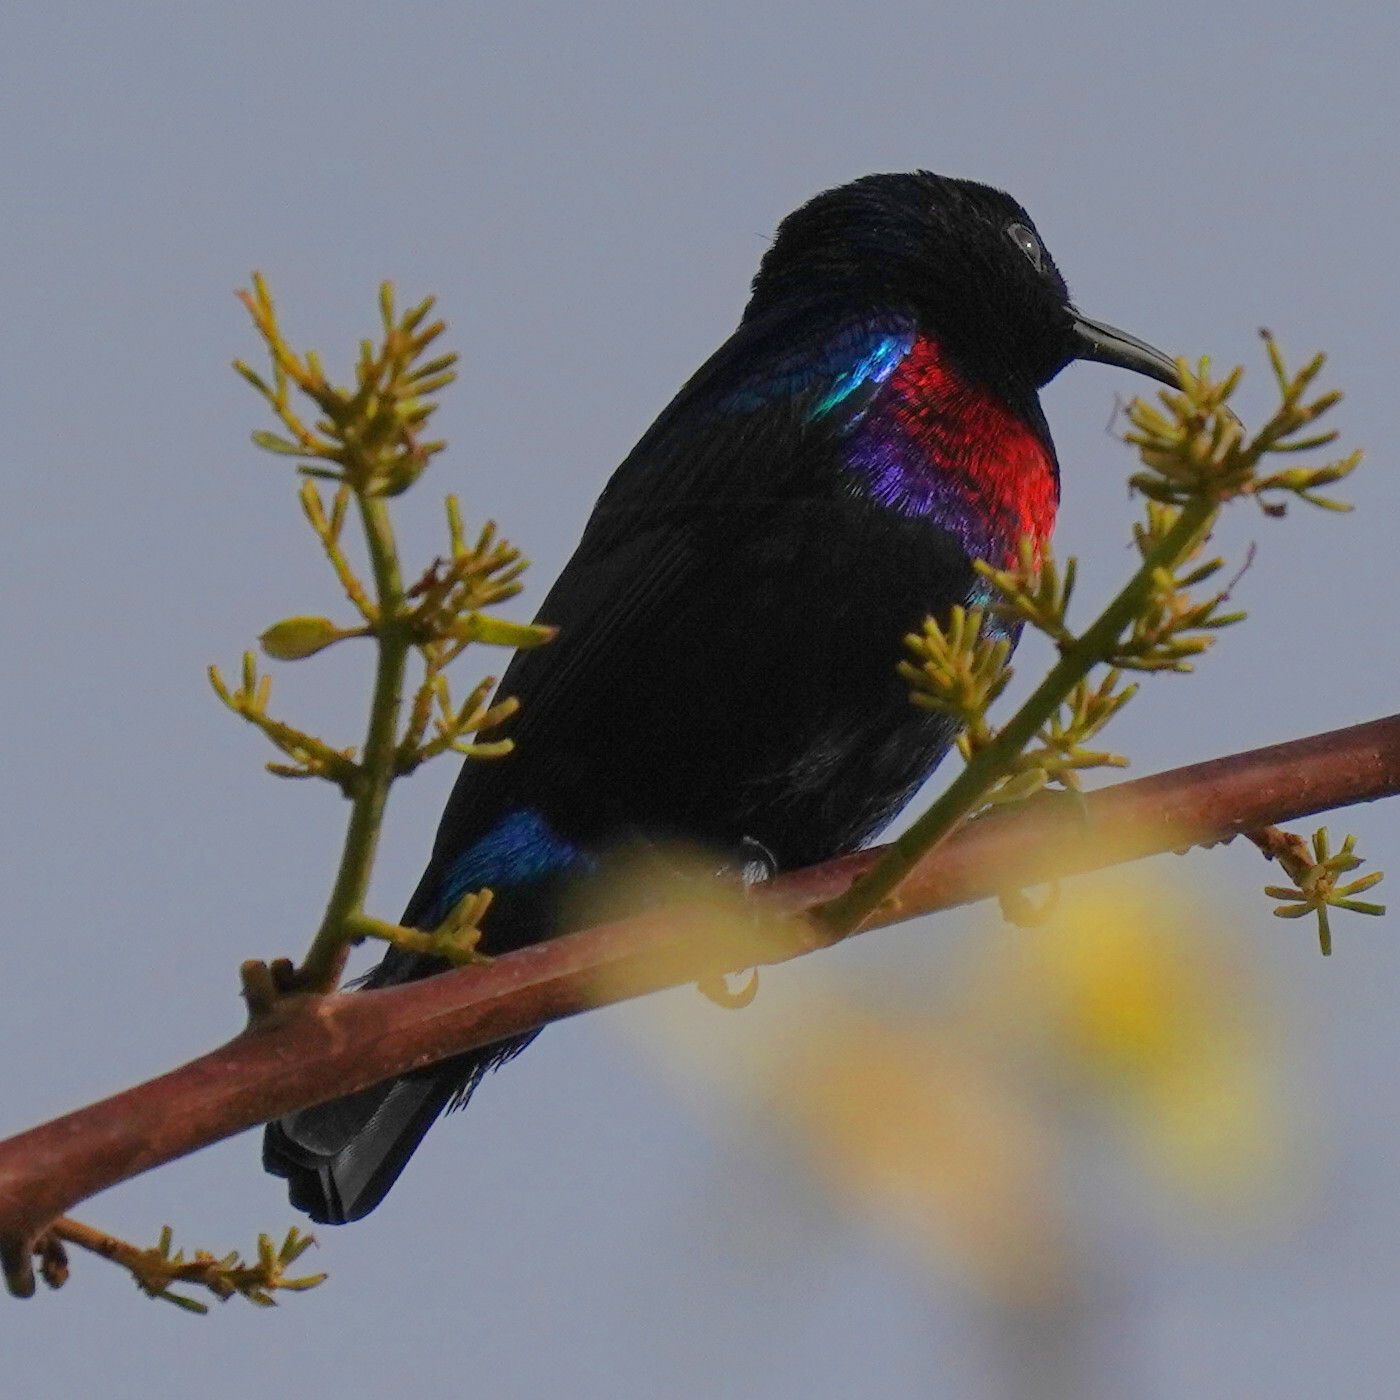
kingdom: Animalia
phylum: Chordata
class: Aves
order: Passeriformes
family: Nectariniidae
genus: Cinnyris
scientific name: Cinnyris coccinigastrus
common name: Splendid sunbird
